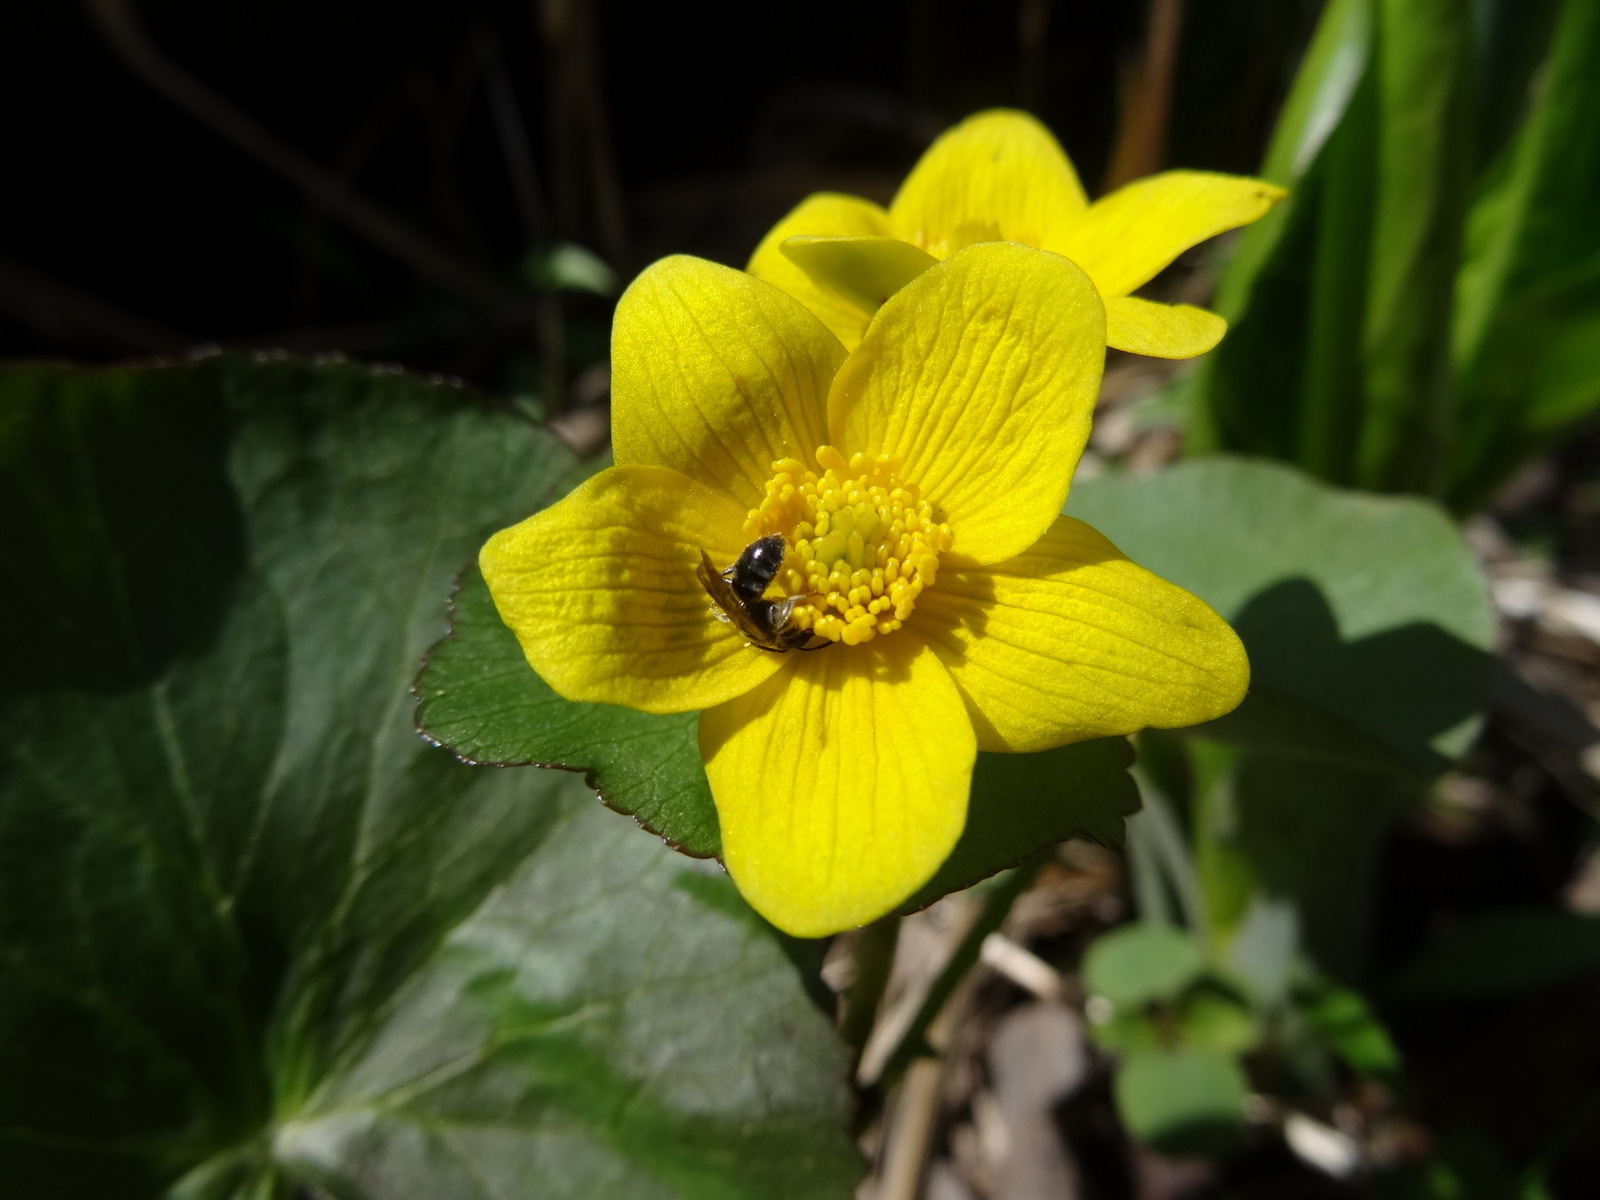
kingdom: Plantae
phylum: Tracheophyta
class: Magnoliopsida
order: Ranunculales
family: Ranunculaceae
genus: Caltha
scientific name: Caltha palustris
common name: Marsh marigold
